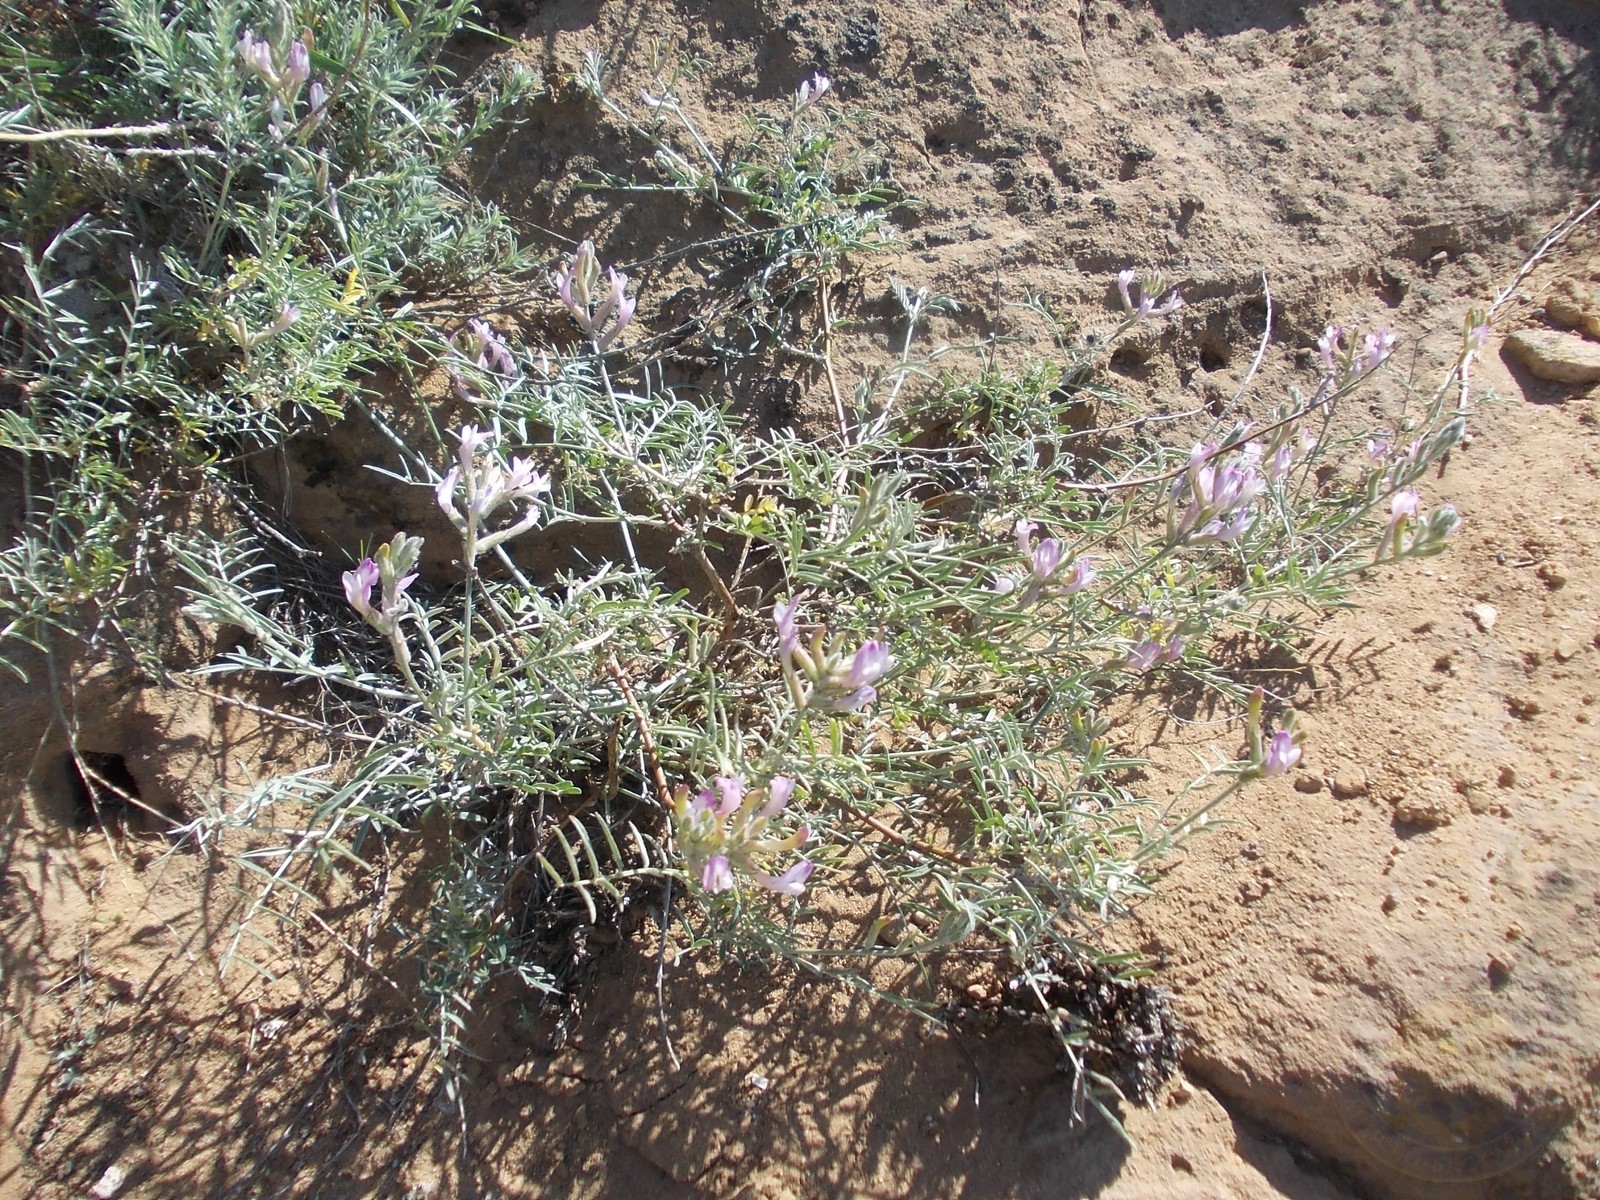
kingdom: Plantae
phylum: Tracheophyta
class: Magnoliopsida
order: Fabales
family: Fabaceae
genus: Astragalus
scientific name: Astragalus brachylobus
